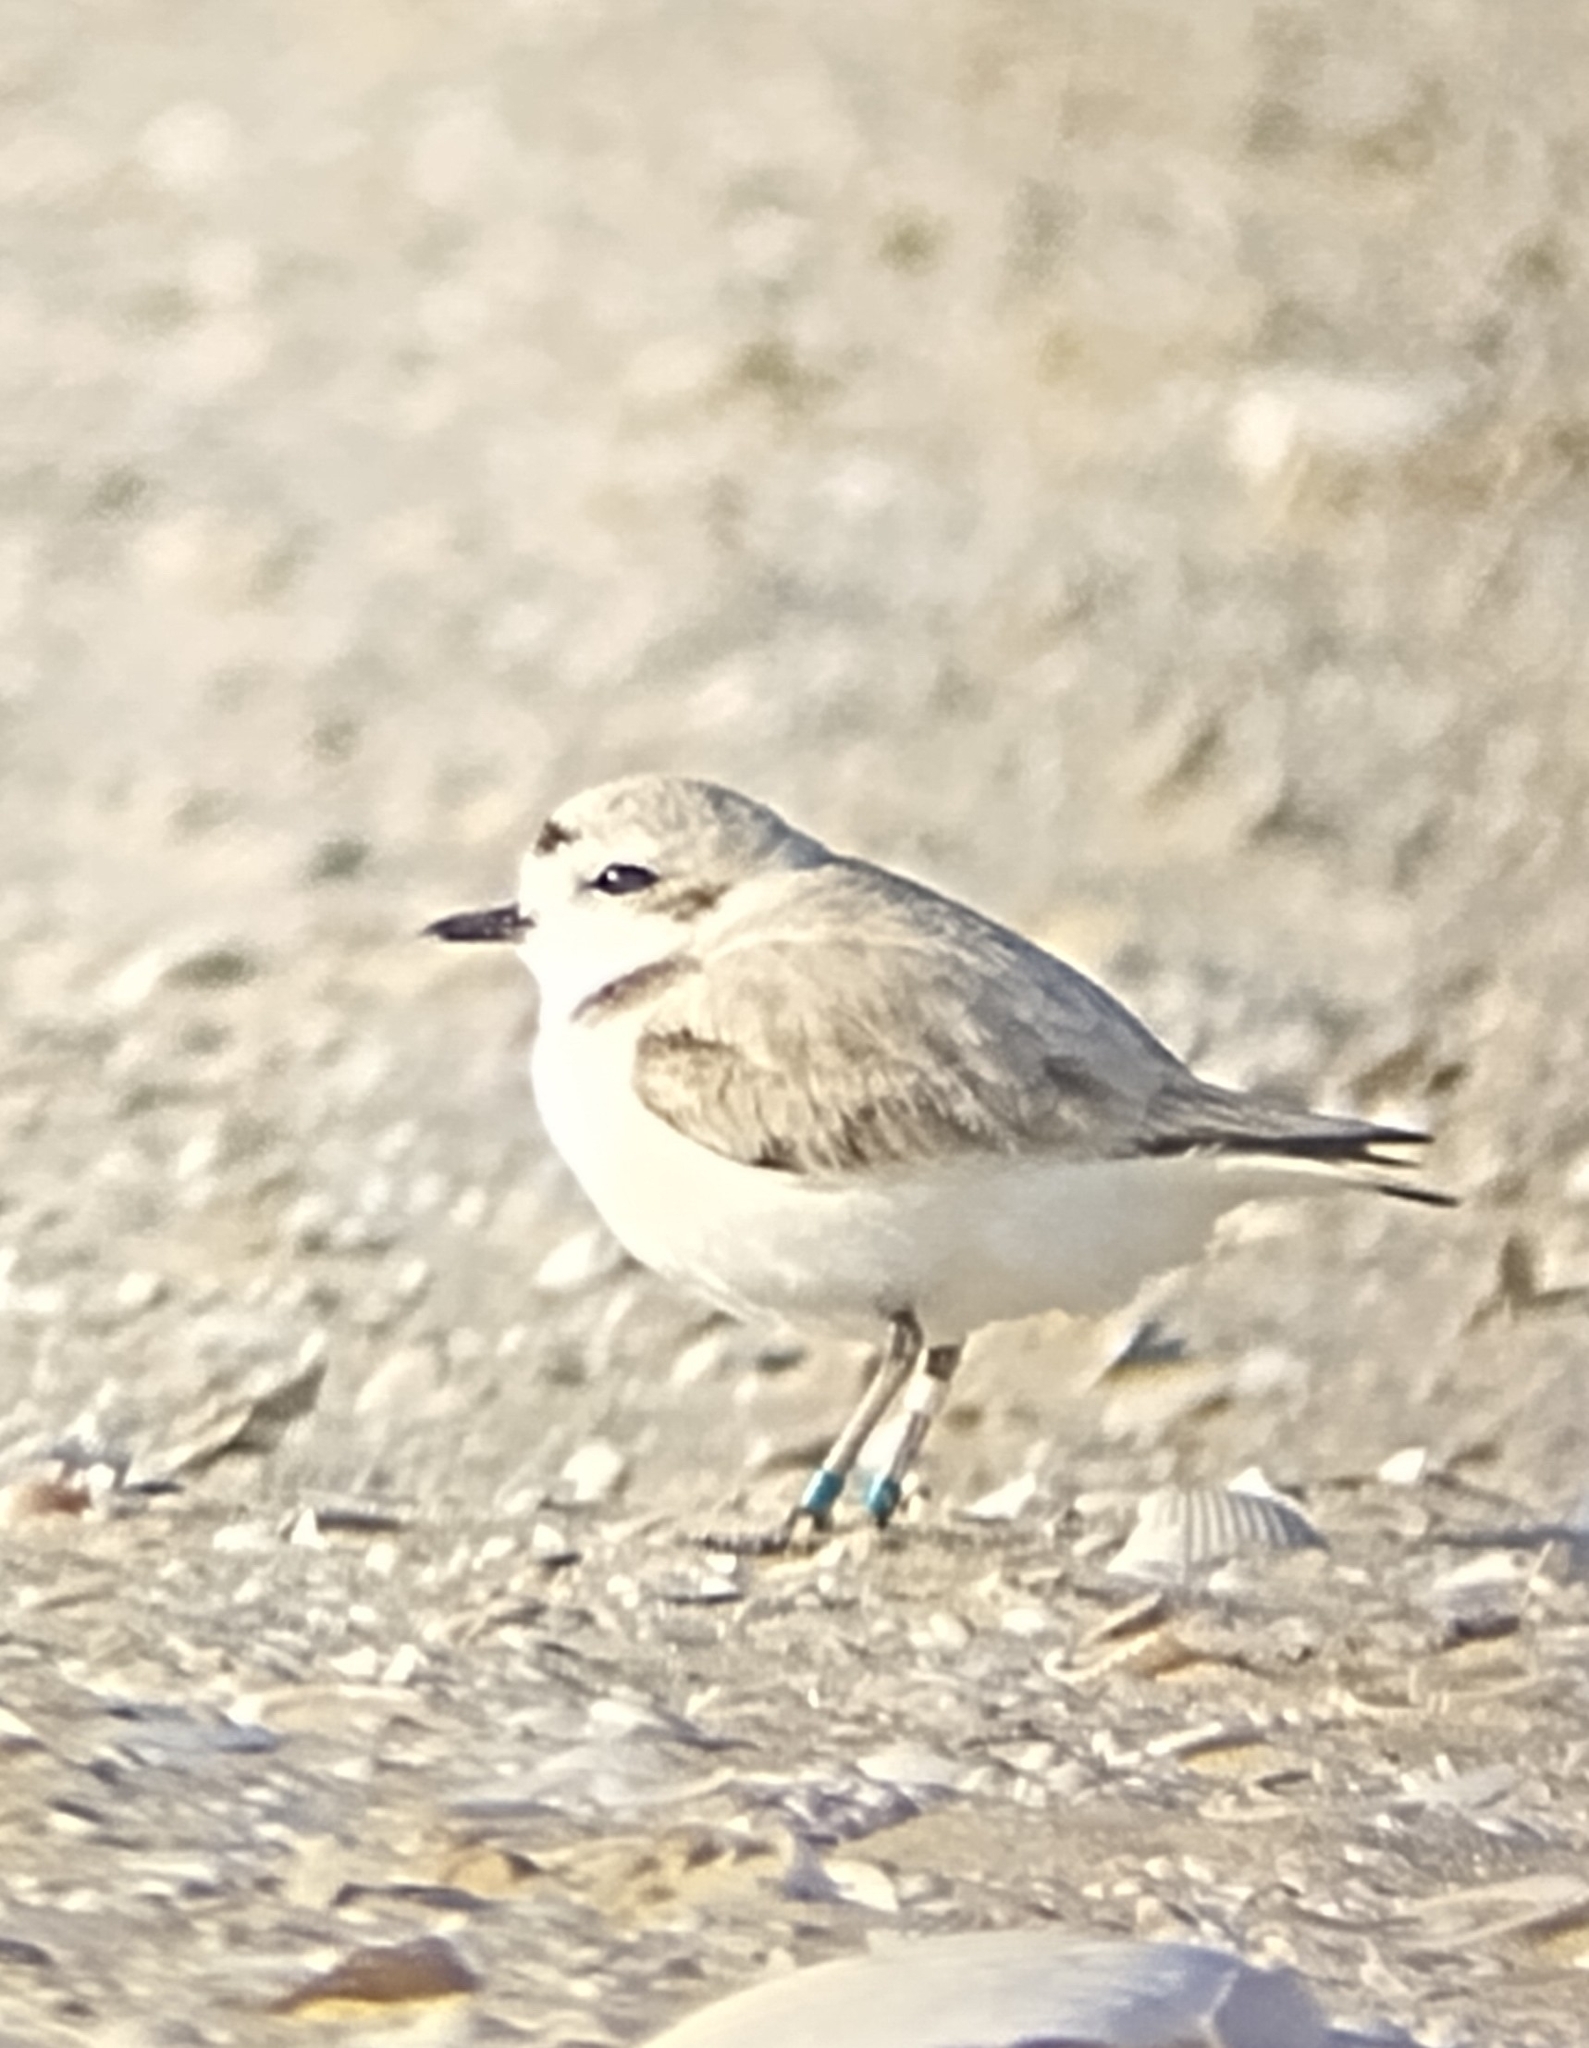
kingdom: Animalia
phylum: Chordata
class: Aves
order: Charadriiformes
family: Charadriidae
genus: Anarhynchus
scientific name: Anarhynchus
